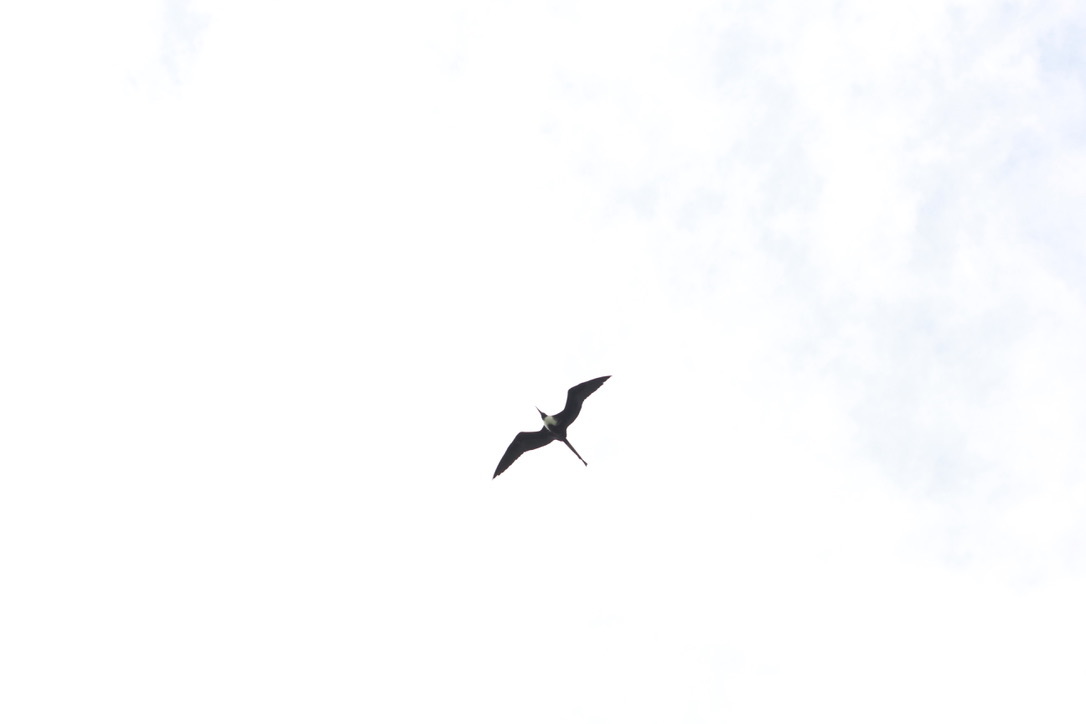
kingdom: Animalia
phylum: Chordata
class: Aves
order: Suliformes
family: Fregatidae
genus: Fregata
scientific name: Fregata magnificens
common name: Magnificent frigatebird
